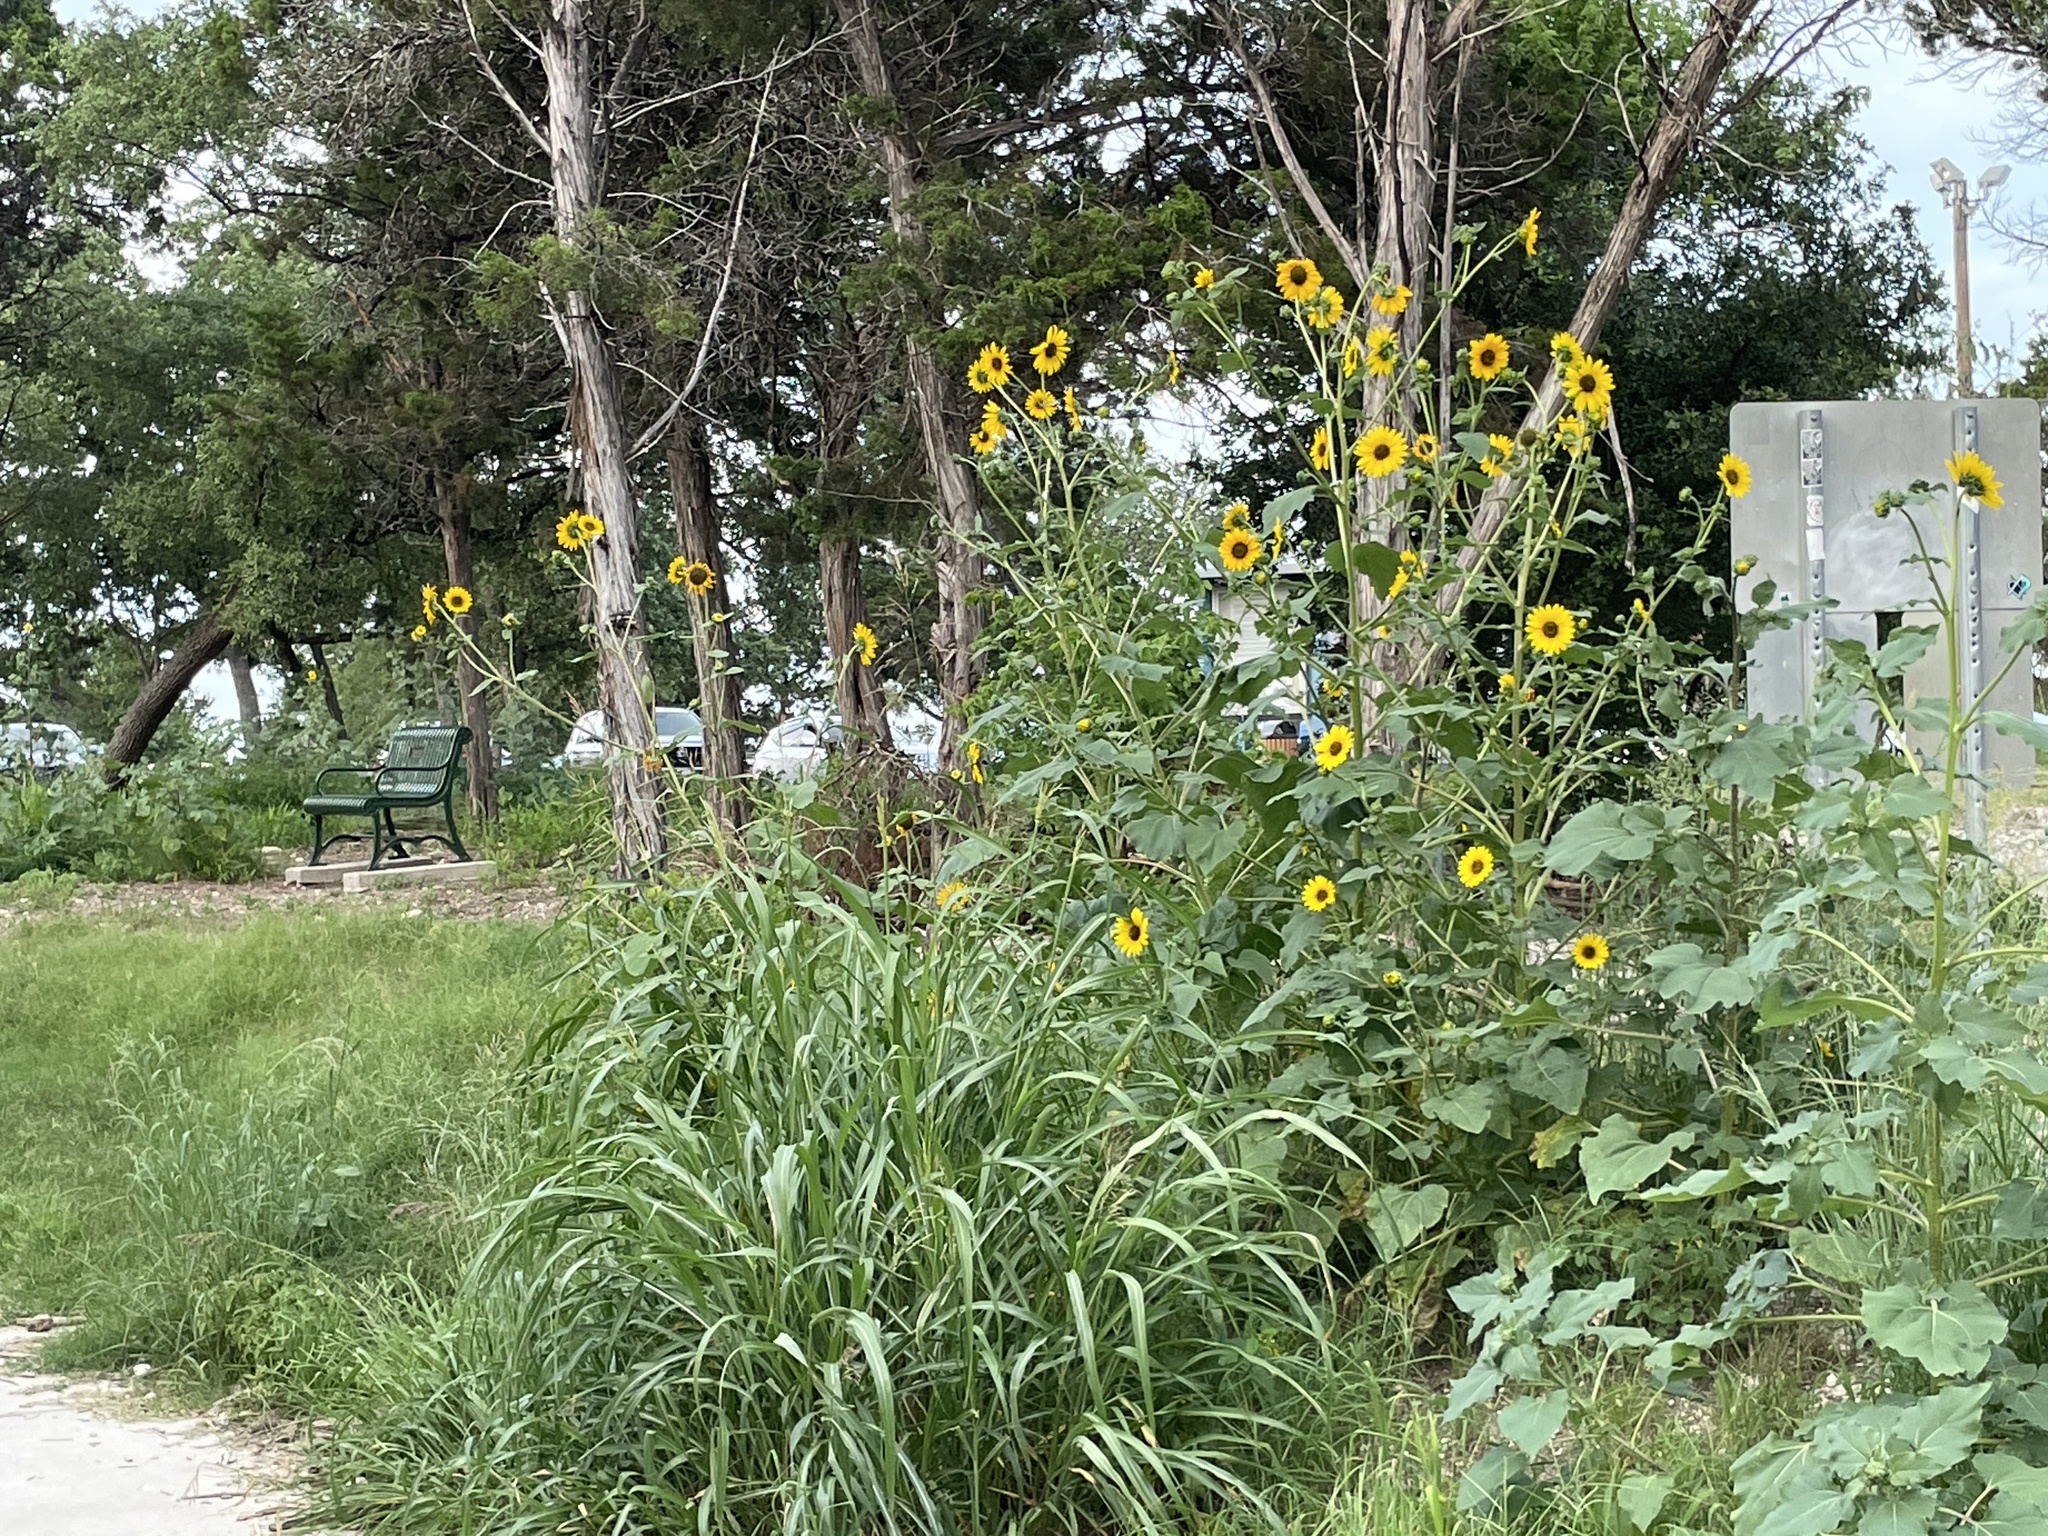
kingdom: Plantae
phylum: Tracheophyta
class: Magnoliopsida
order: Asterales
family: Asteraceae
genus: Helianthus
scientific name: Helianthus annuus
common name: Sunflower
